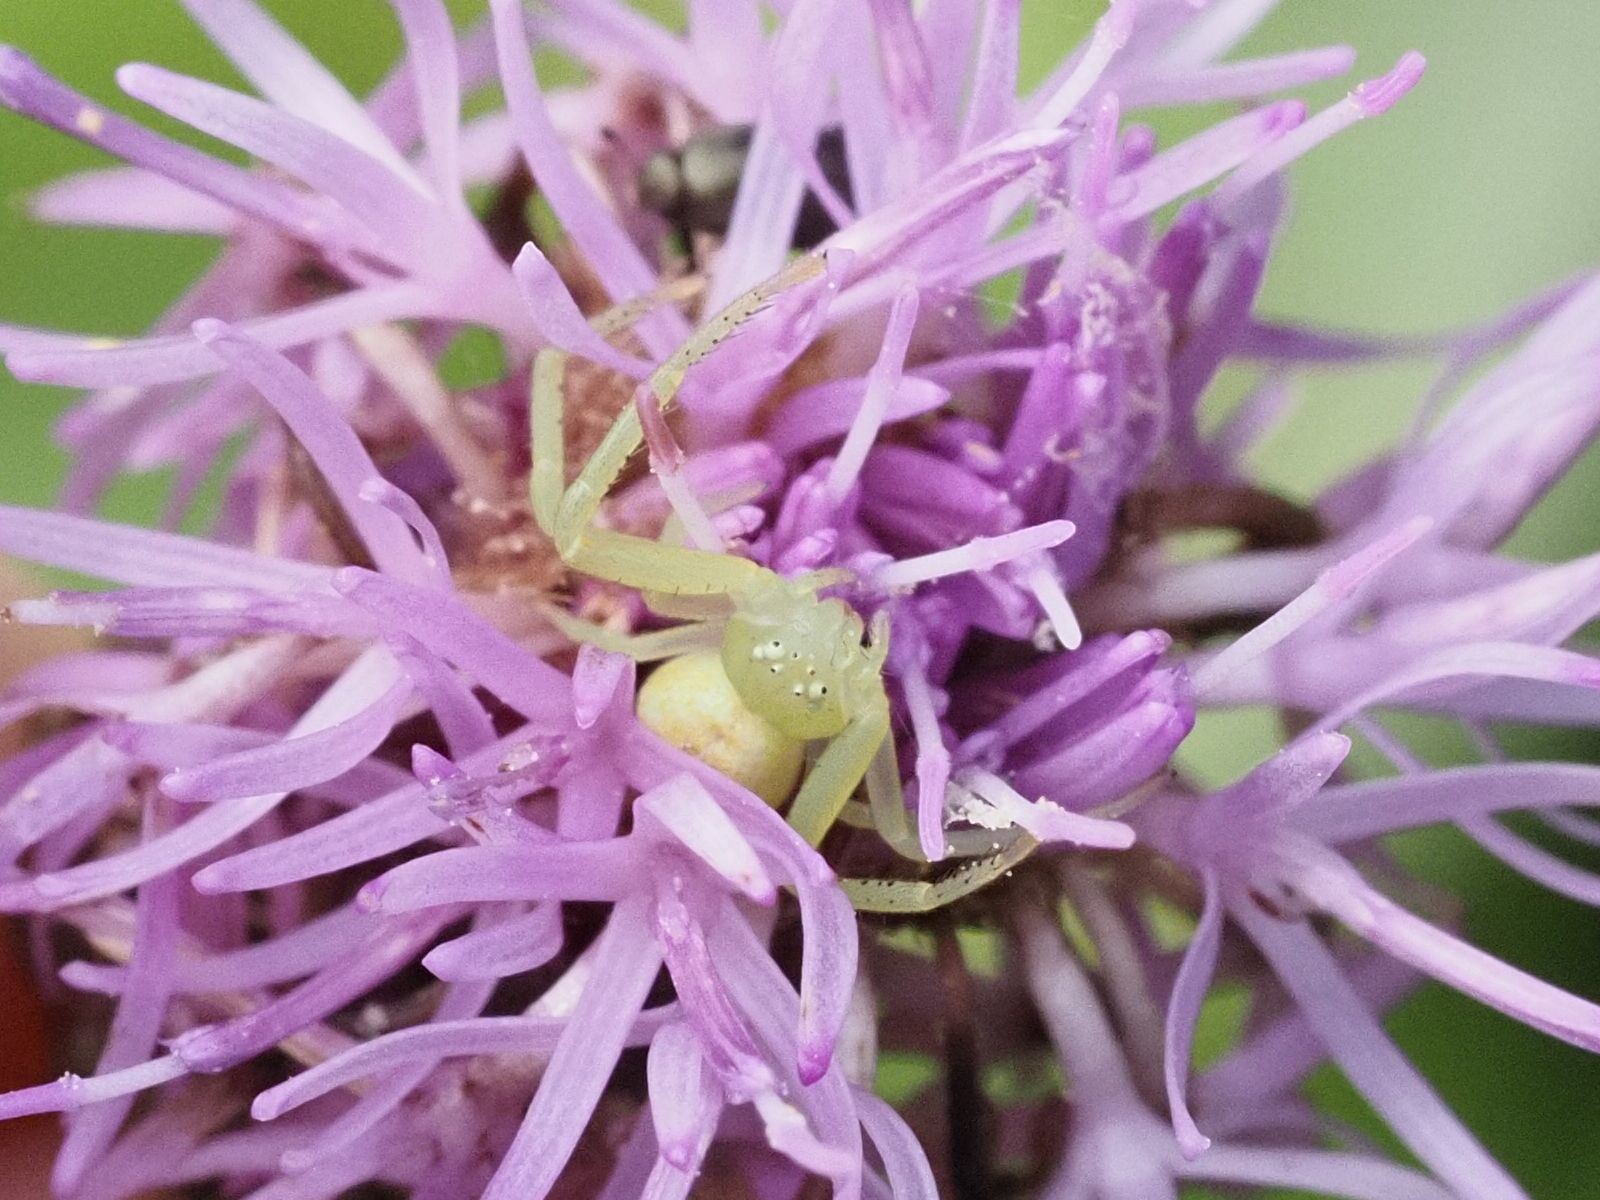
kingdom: Animalia
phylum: Arthropoda
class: Arachnida
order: Araneae
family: Thomisidae
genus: Misumena
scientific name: Misumena vatia
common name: Goldenrod crab spider
